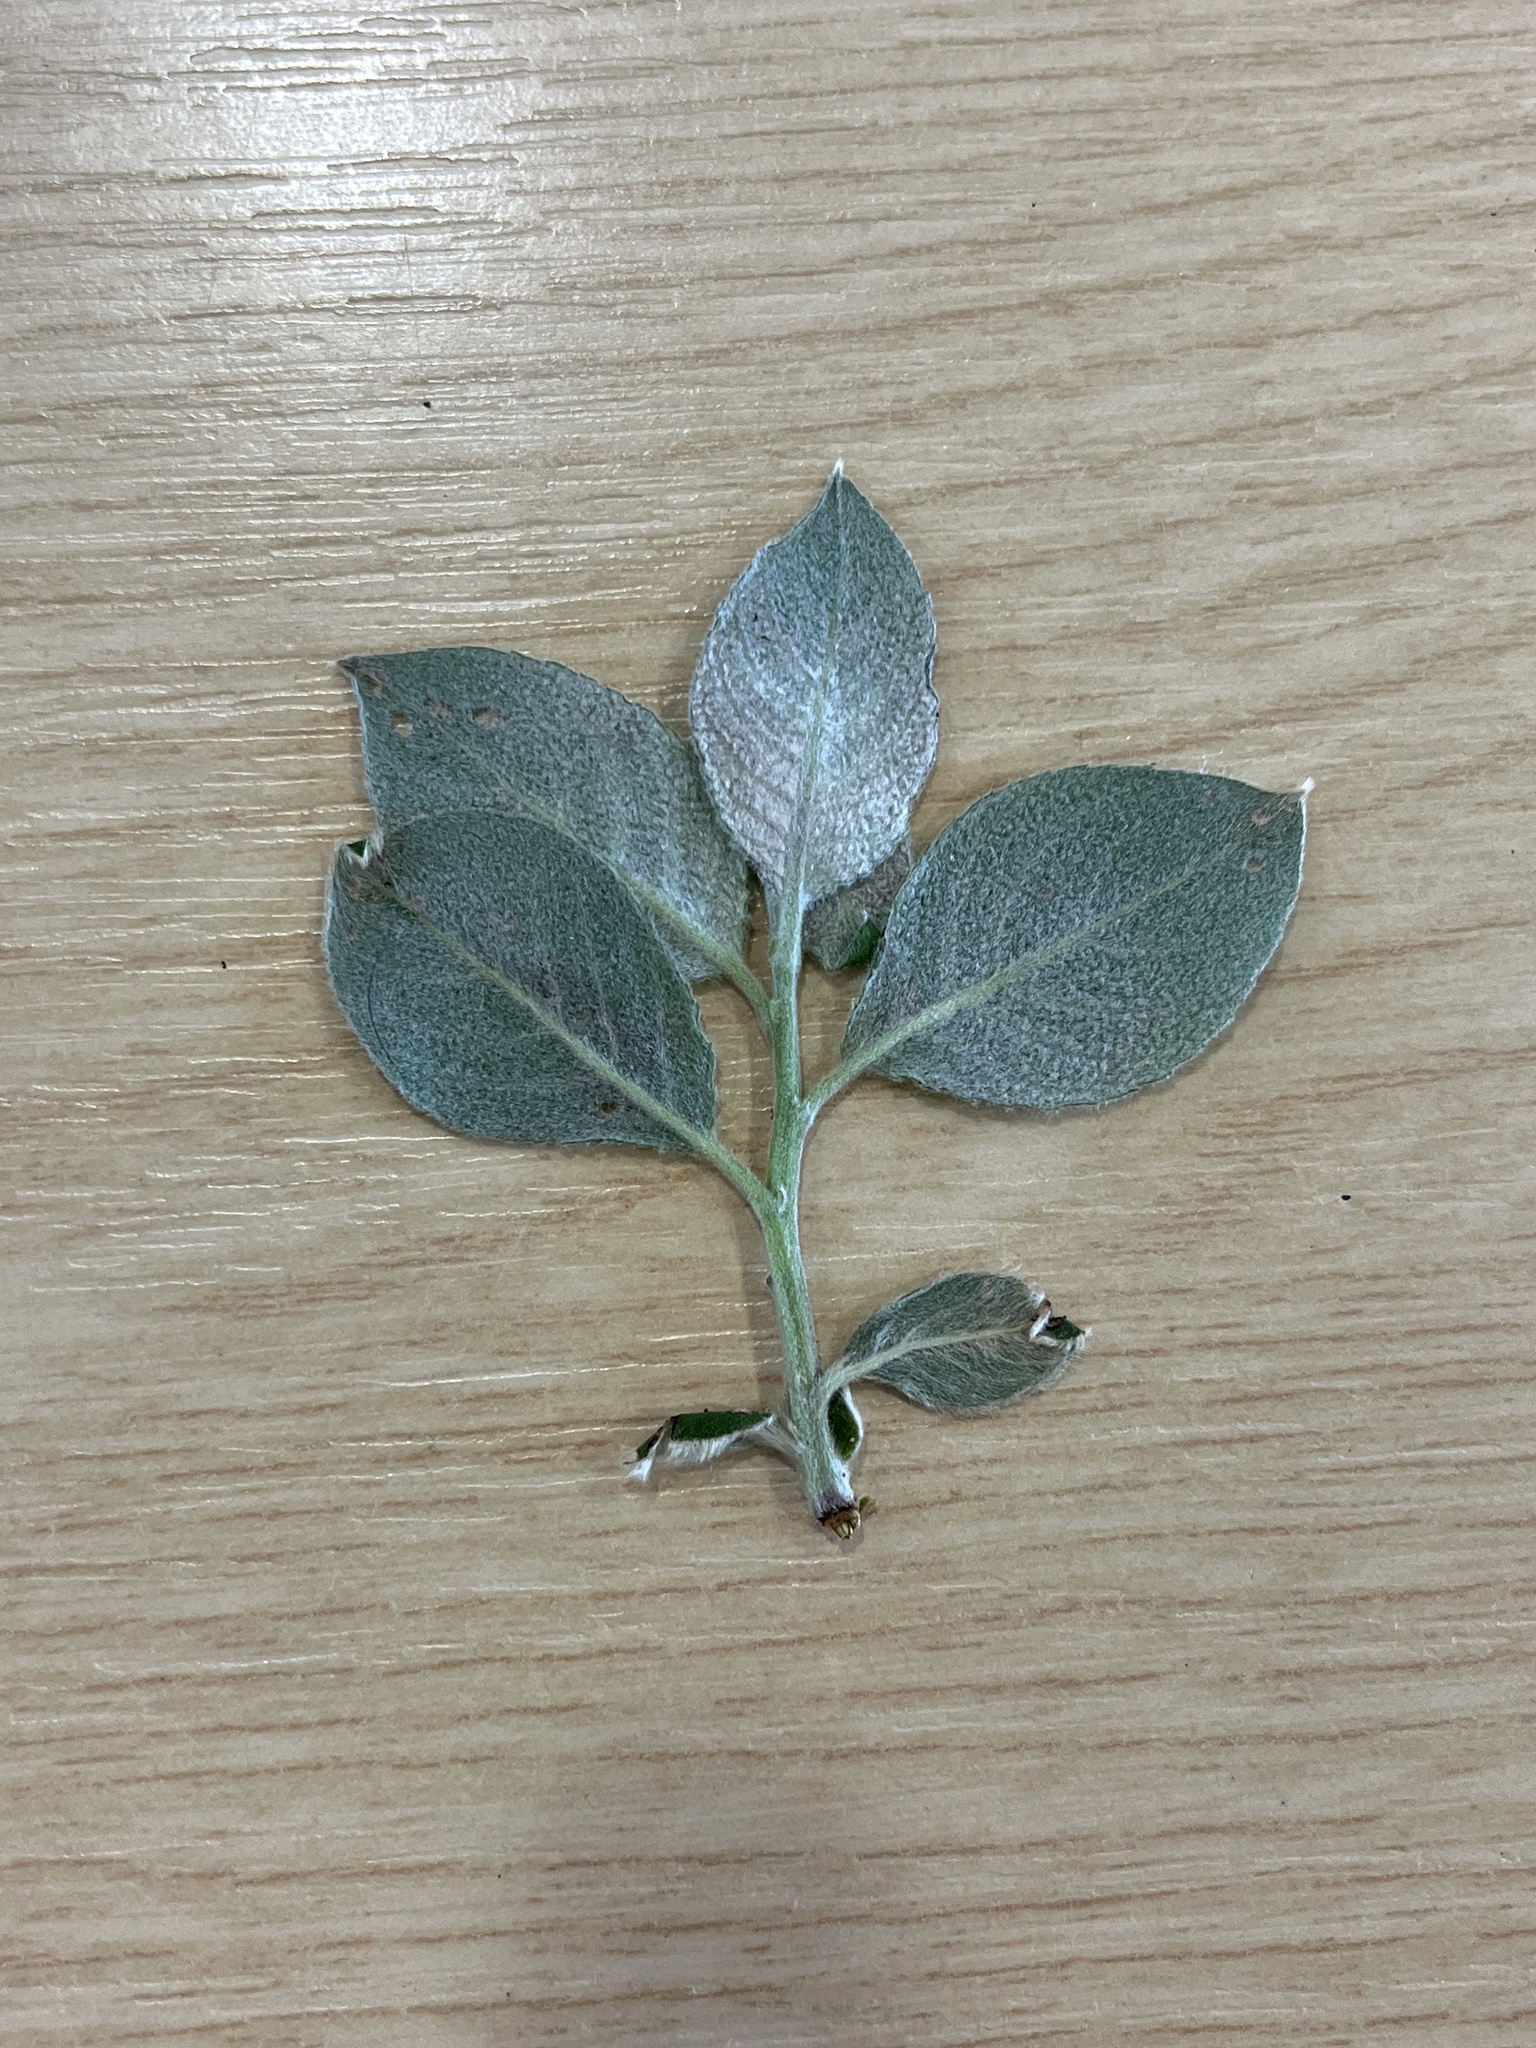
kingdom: Plantae
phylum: Tracheophyta
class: Magnoliopsida
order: Malpighiales
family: Salicaceae
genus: Salix
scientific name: Salix caprea
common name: Goat willow
